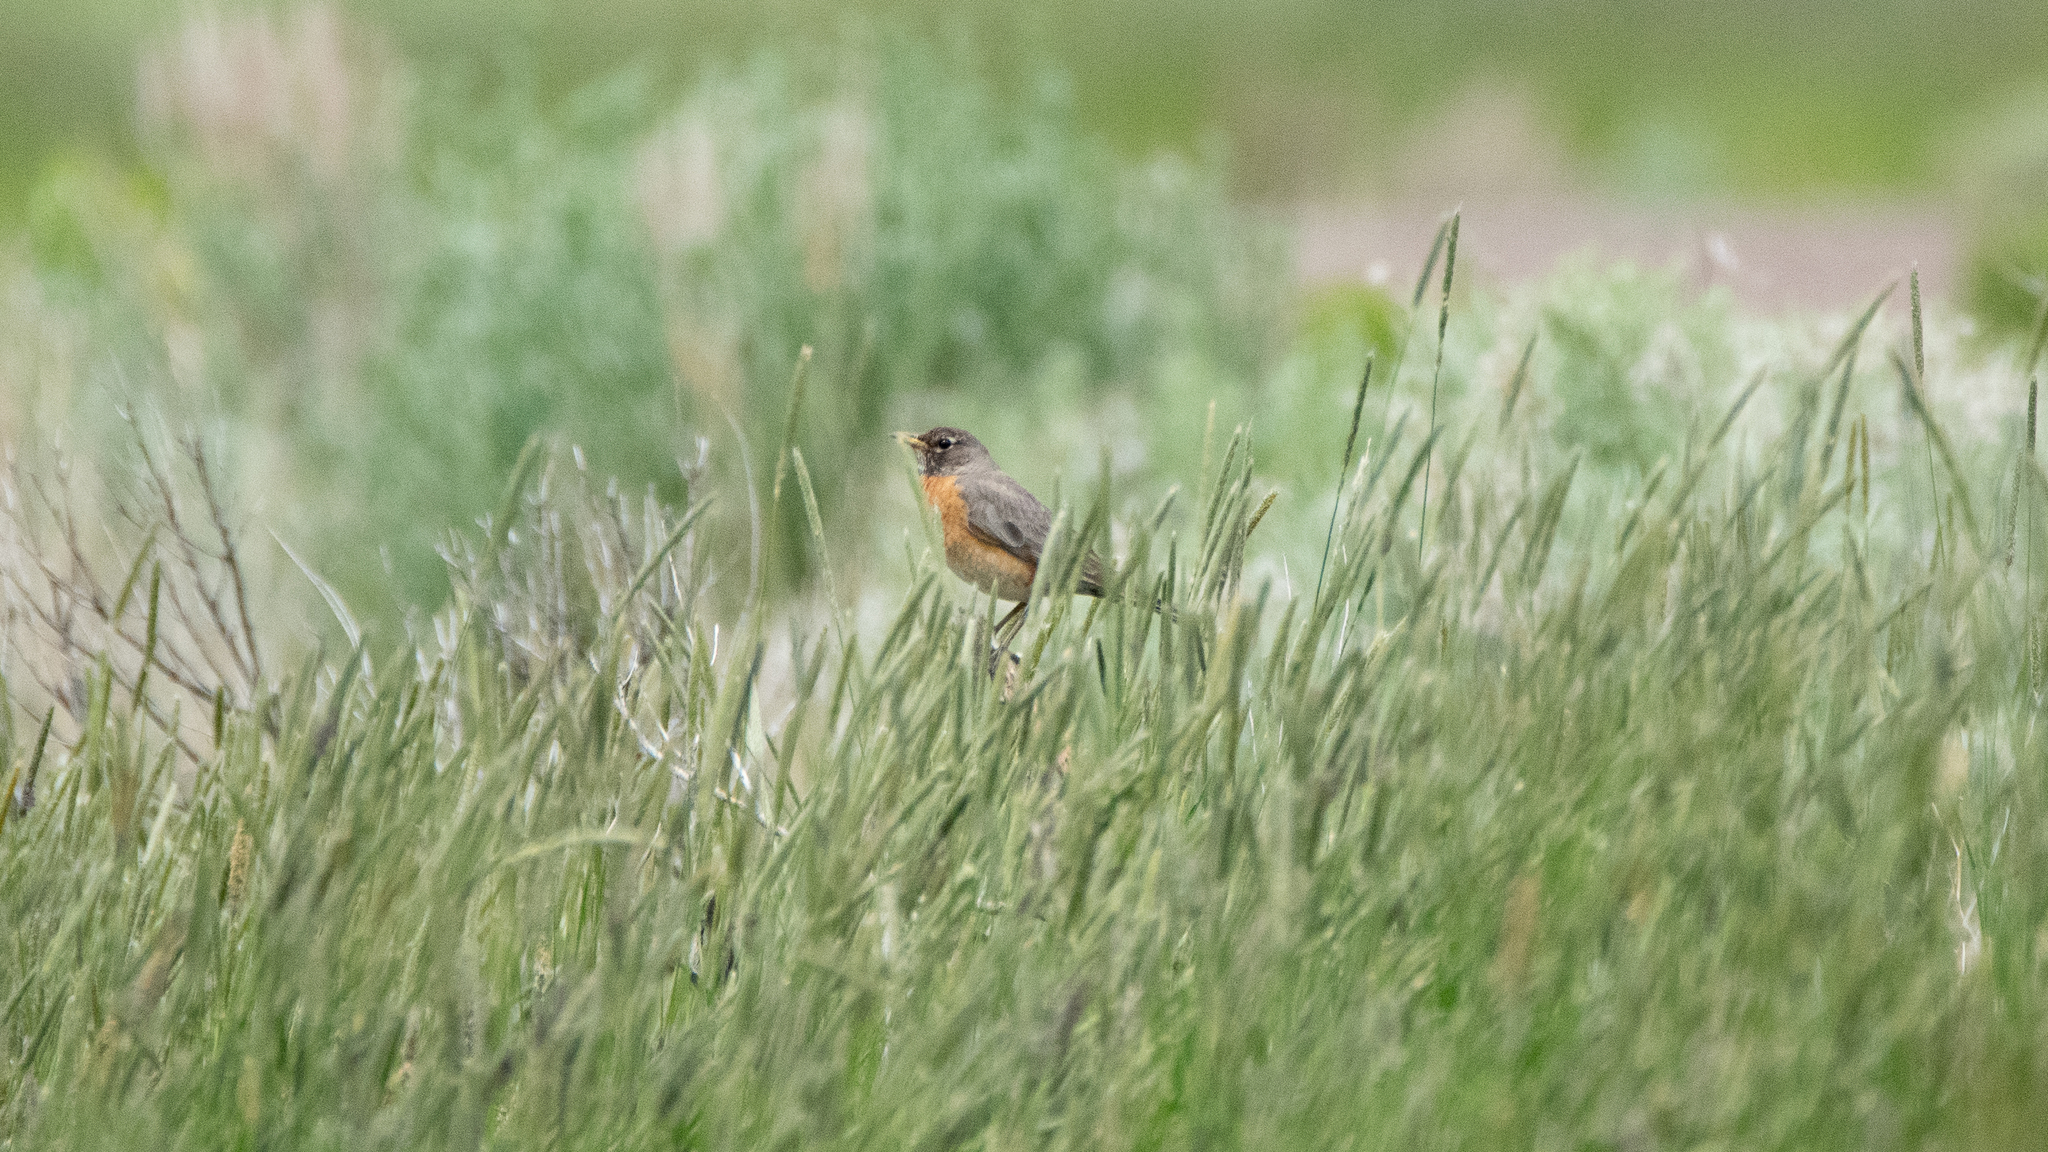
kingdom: Animalia
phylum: Chordata
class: Aves
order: Passeriformes
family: Turdidae
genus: Turdus
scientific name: Turdus migratorius
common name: American robin
